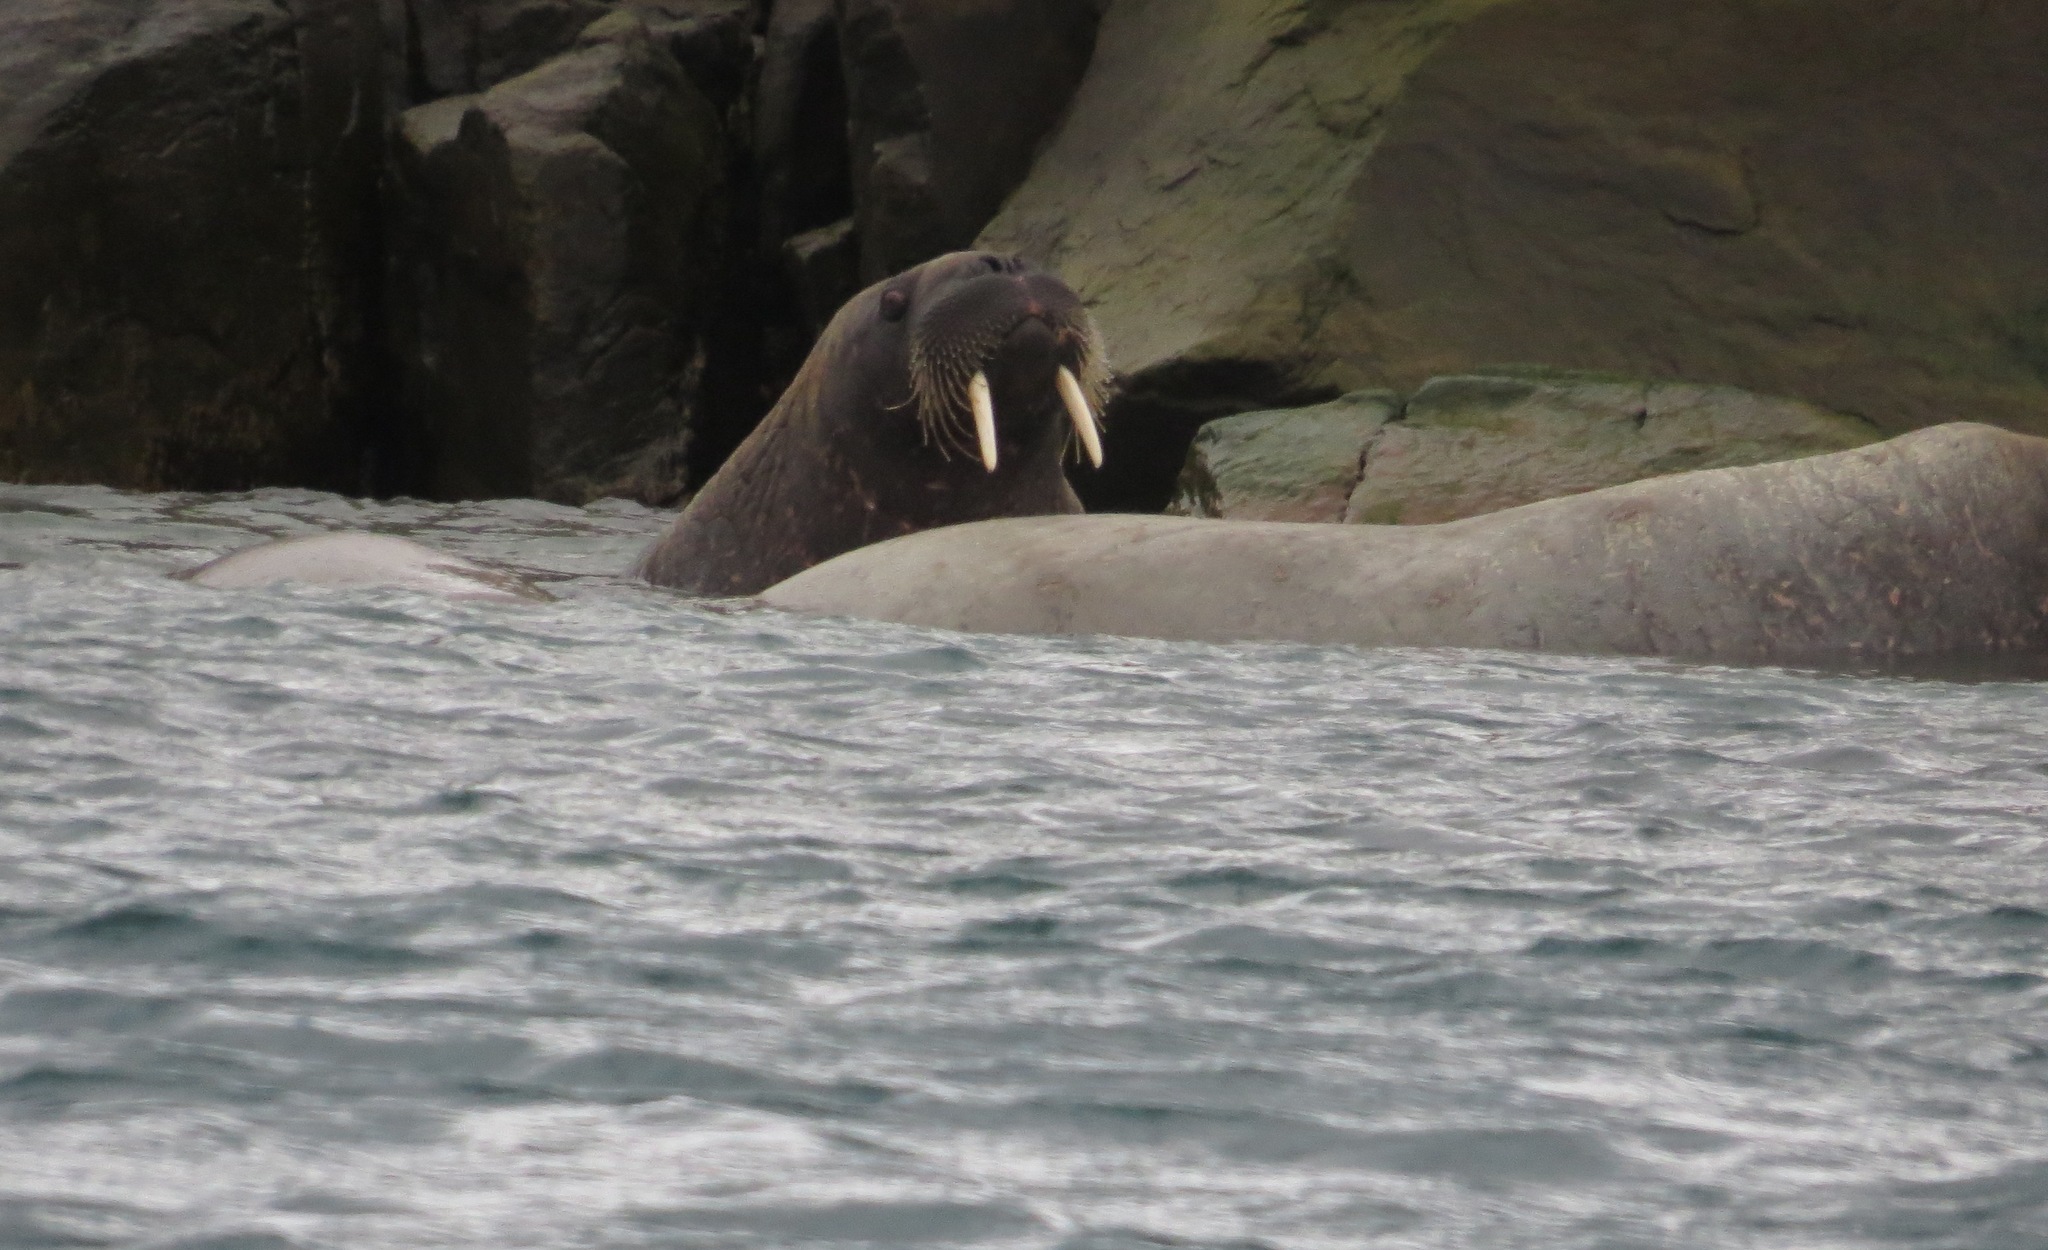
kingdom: Animalia
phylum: Chordata
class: Mammalia
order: Carnivora
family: Odobenidae
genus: Odobenus
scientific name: Odobenus rosmarus
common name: Walrus
